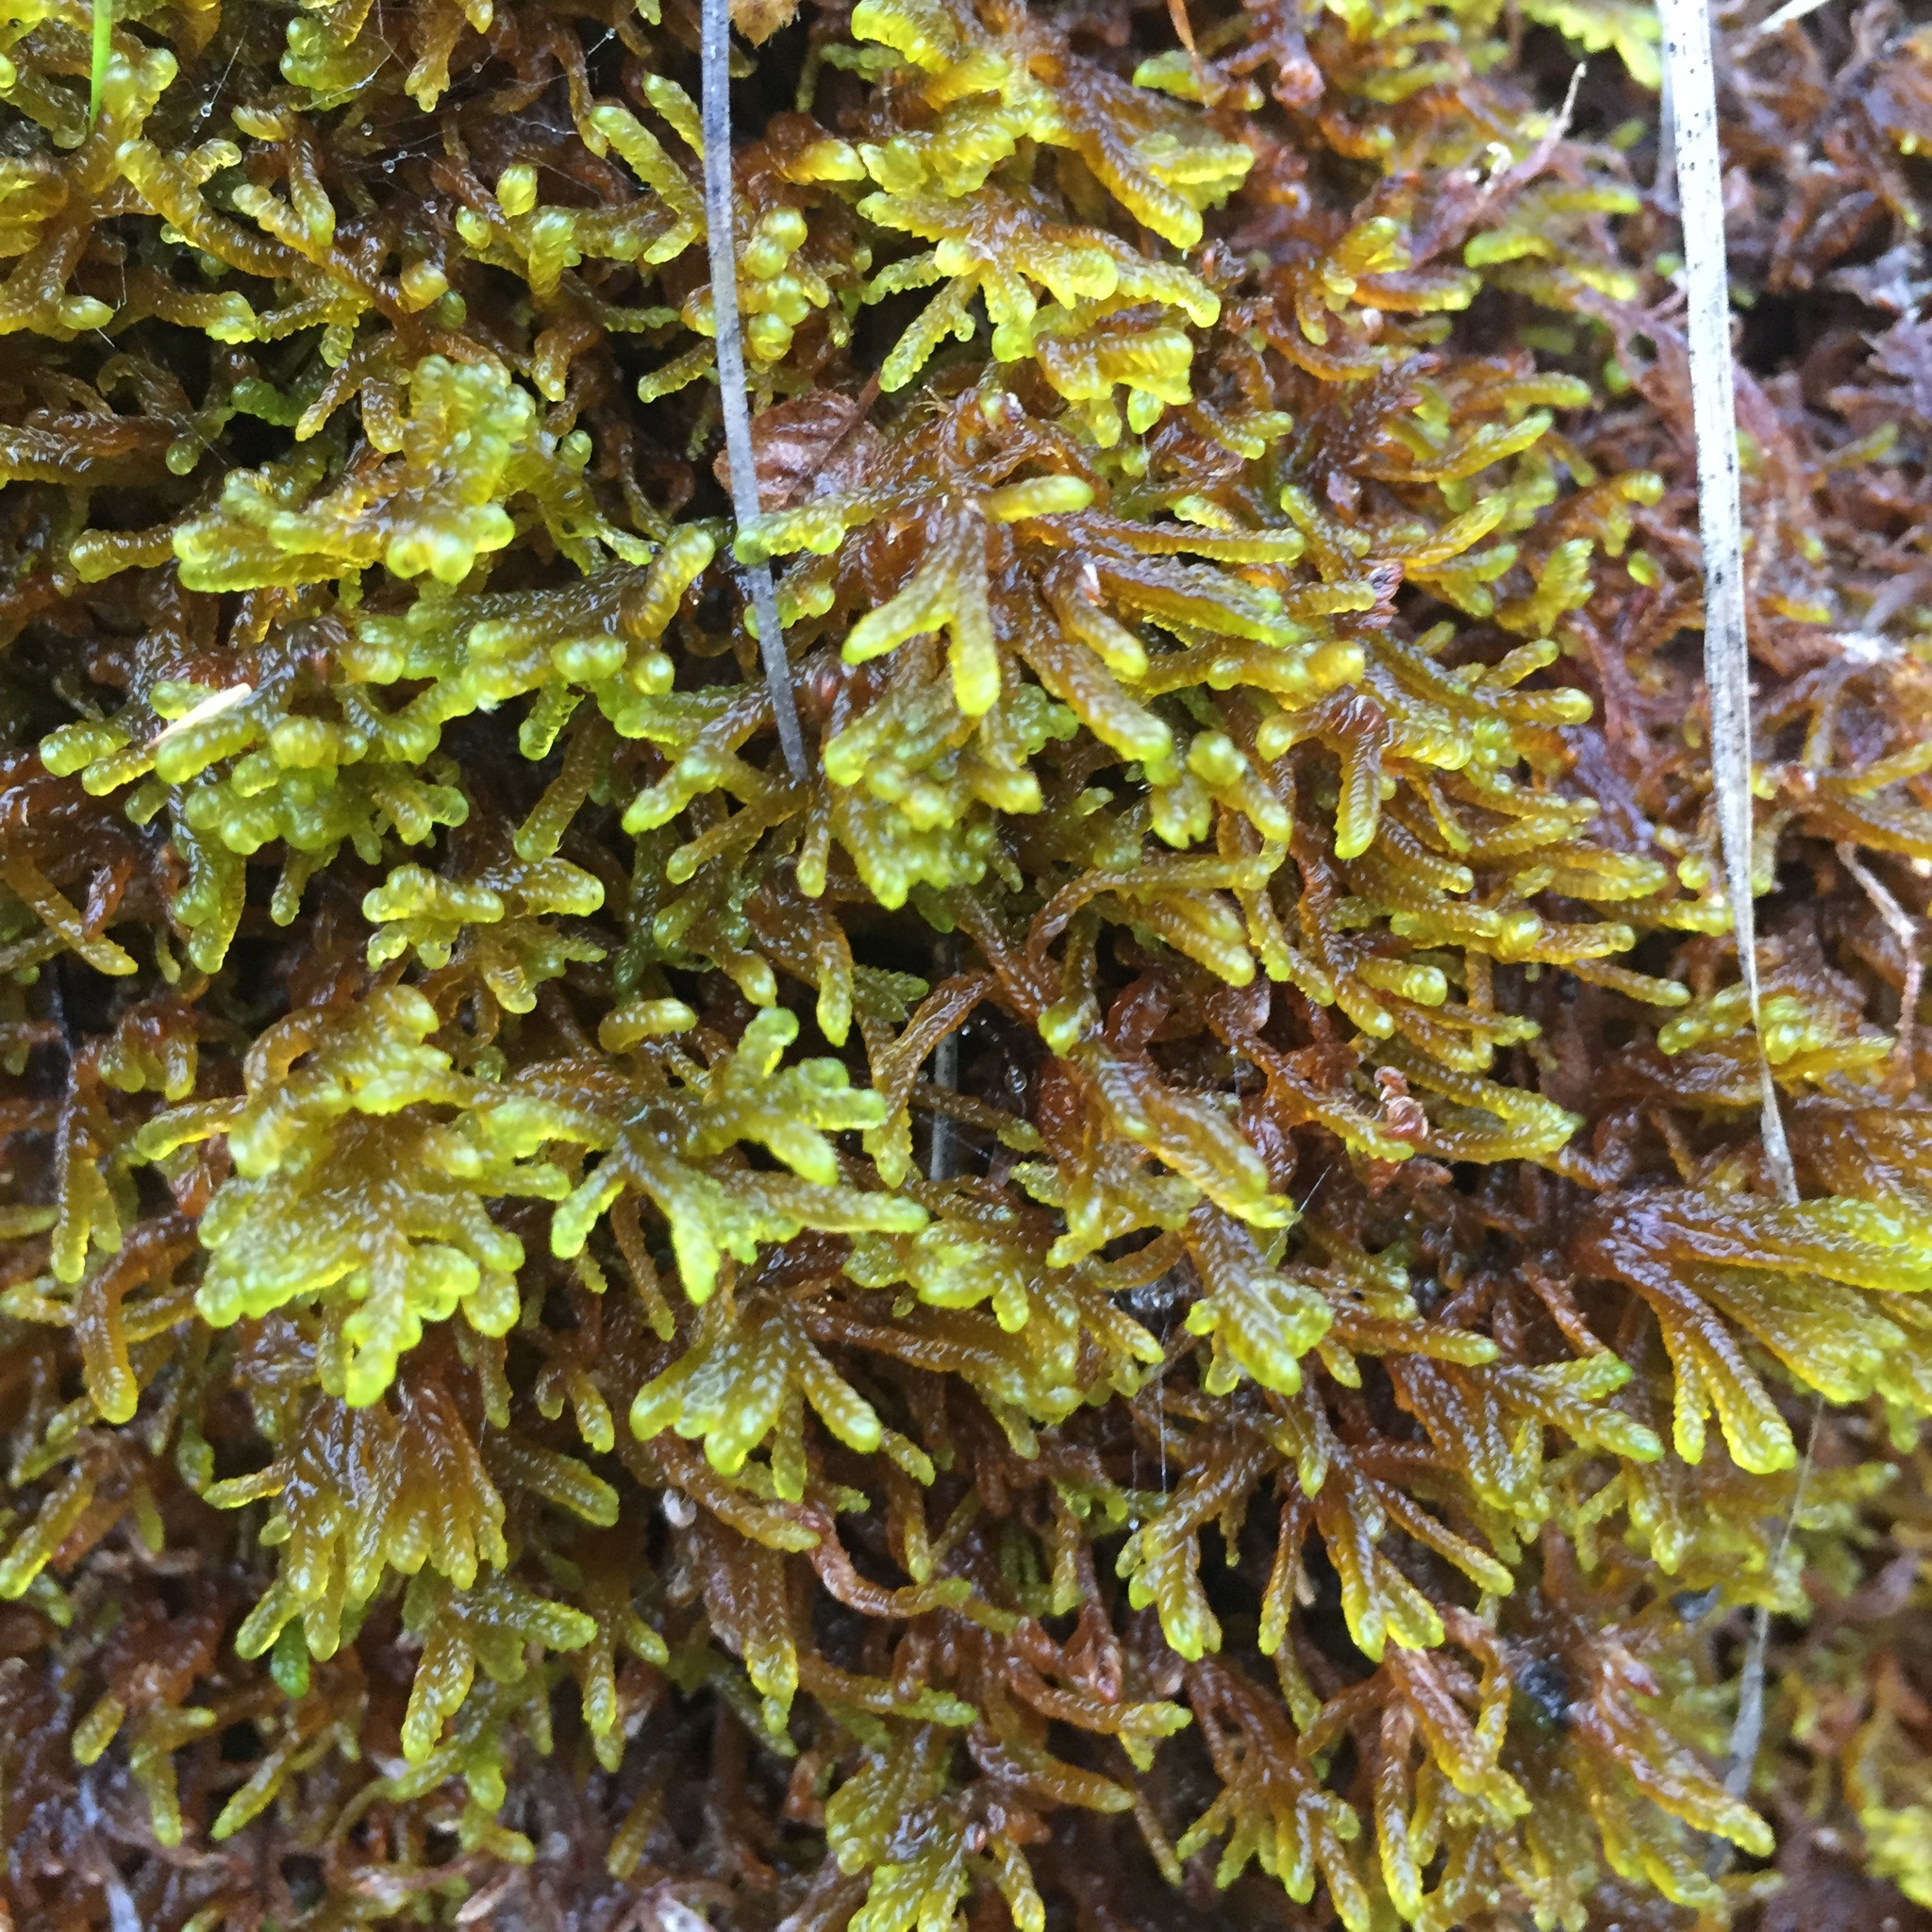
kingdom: Plantae
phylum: Bryophyta
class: Bryopsida
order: Hypnales
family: Scorpidiaceae
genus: Scorpidium
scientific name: Scorpidium cossonii
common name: Cosson's hook moss
